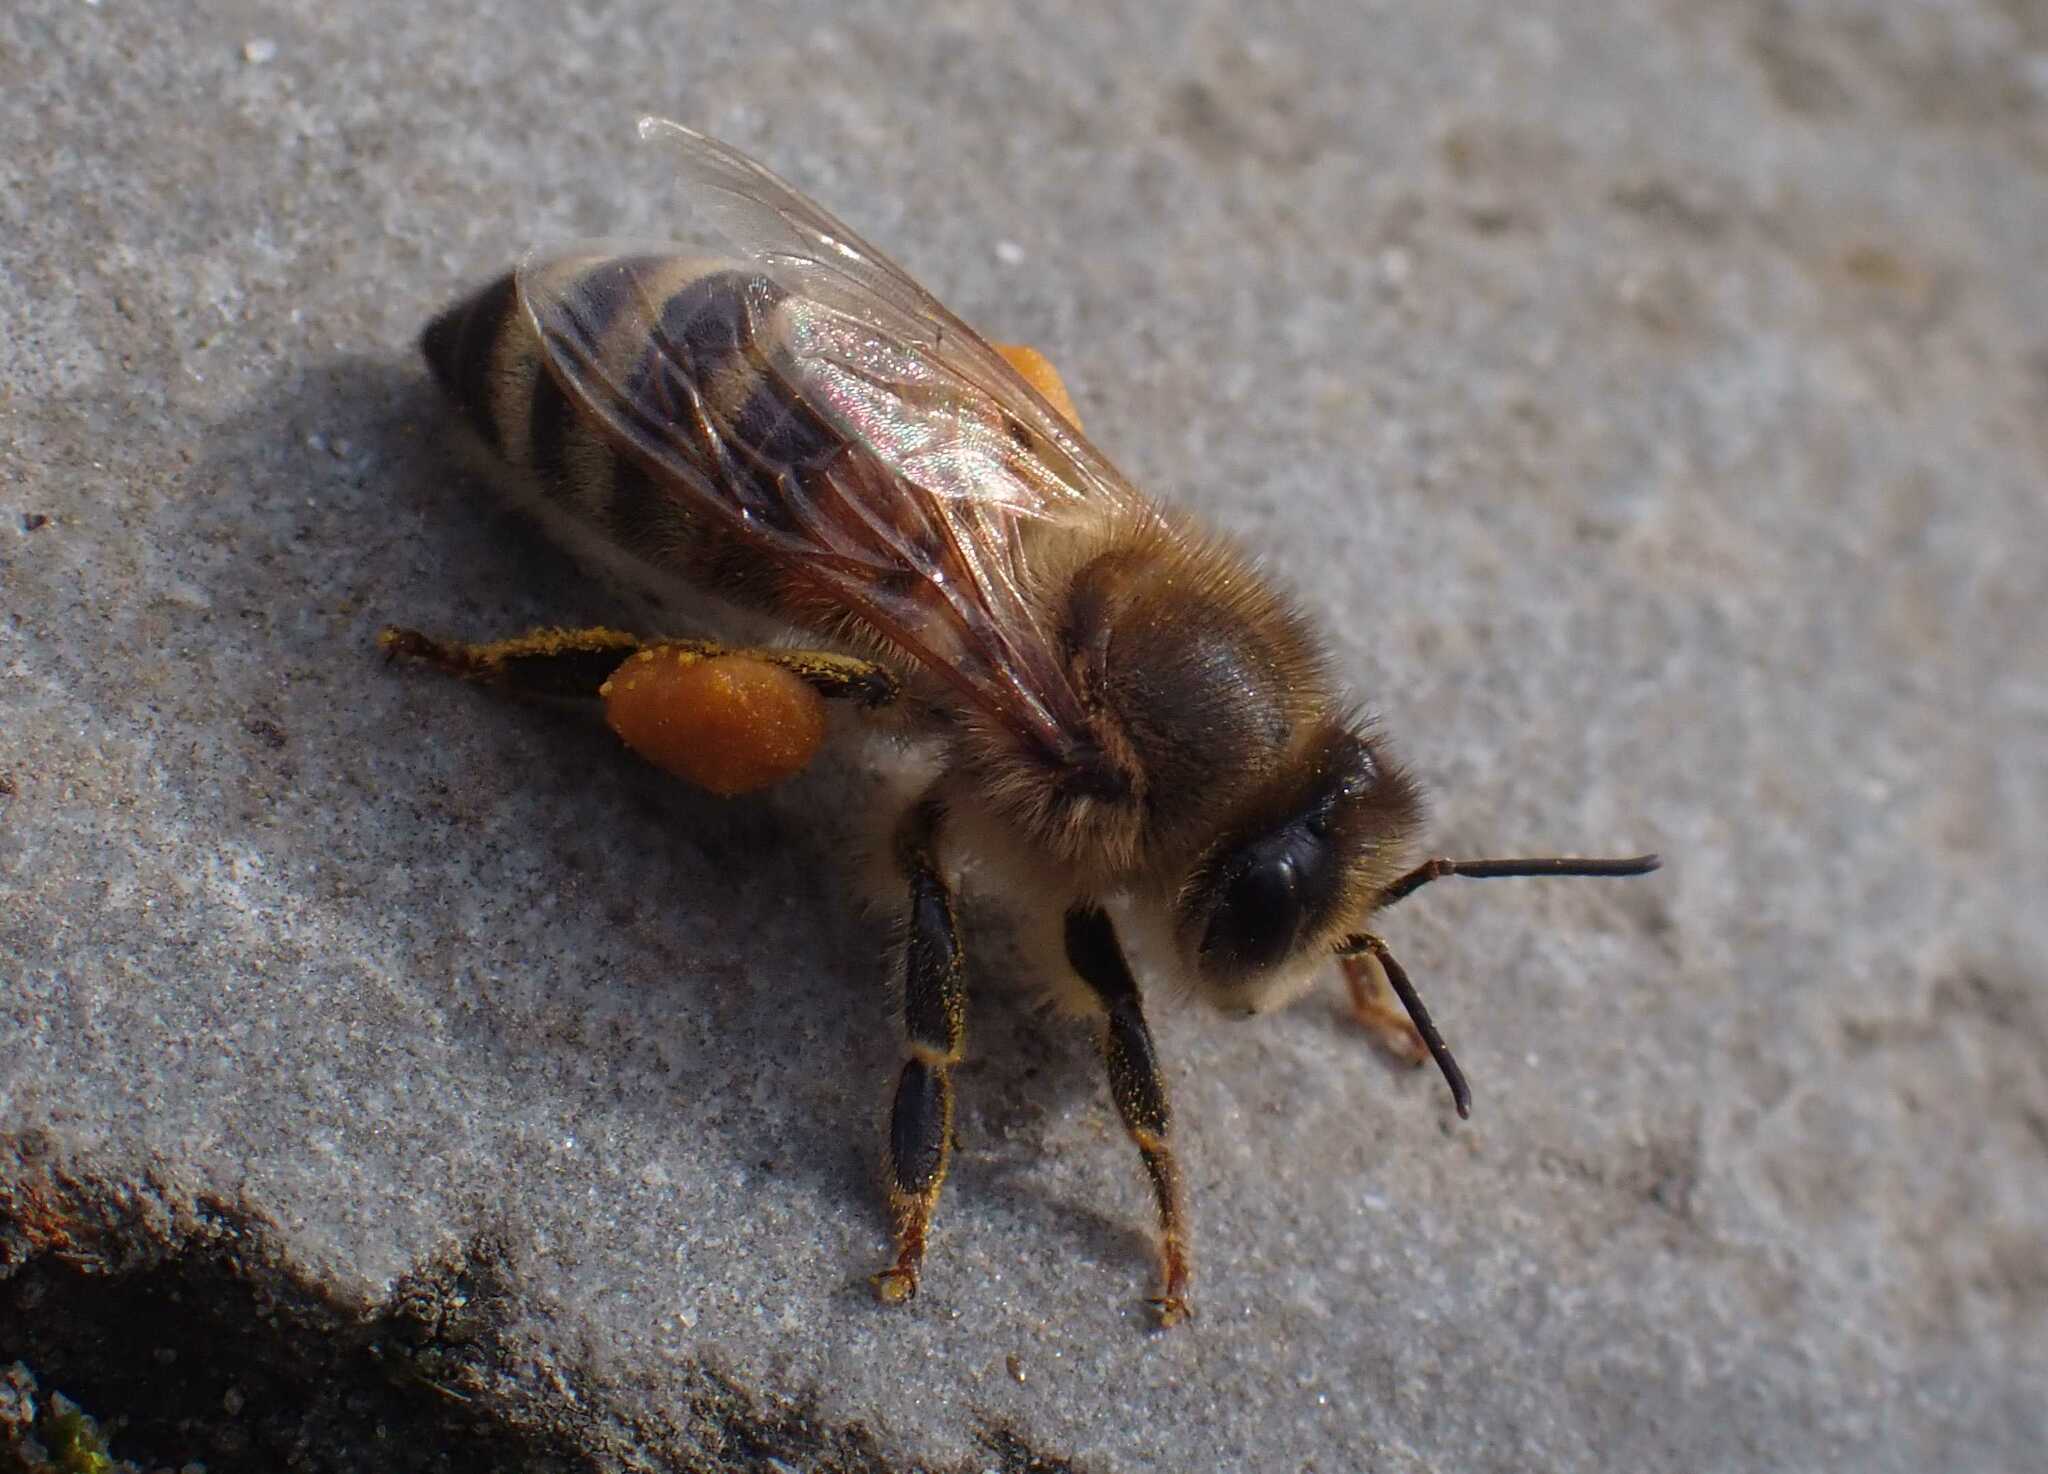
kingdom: Animalia
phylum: Arthropoda
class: Insecta
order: Hymenoptera
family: Apidae
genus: Apis
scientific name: Apis mellifera
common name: Honey bee
